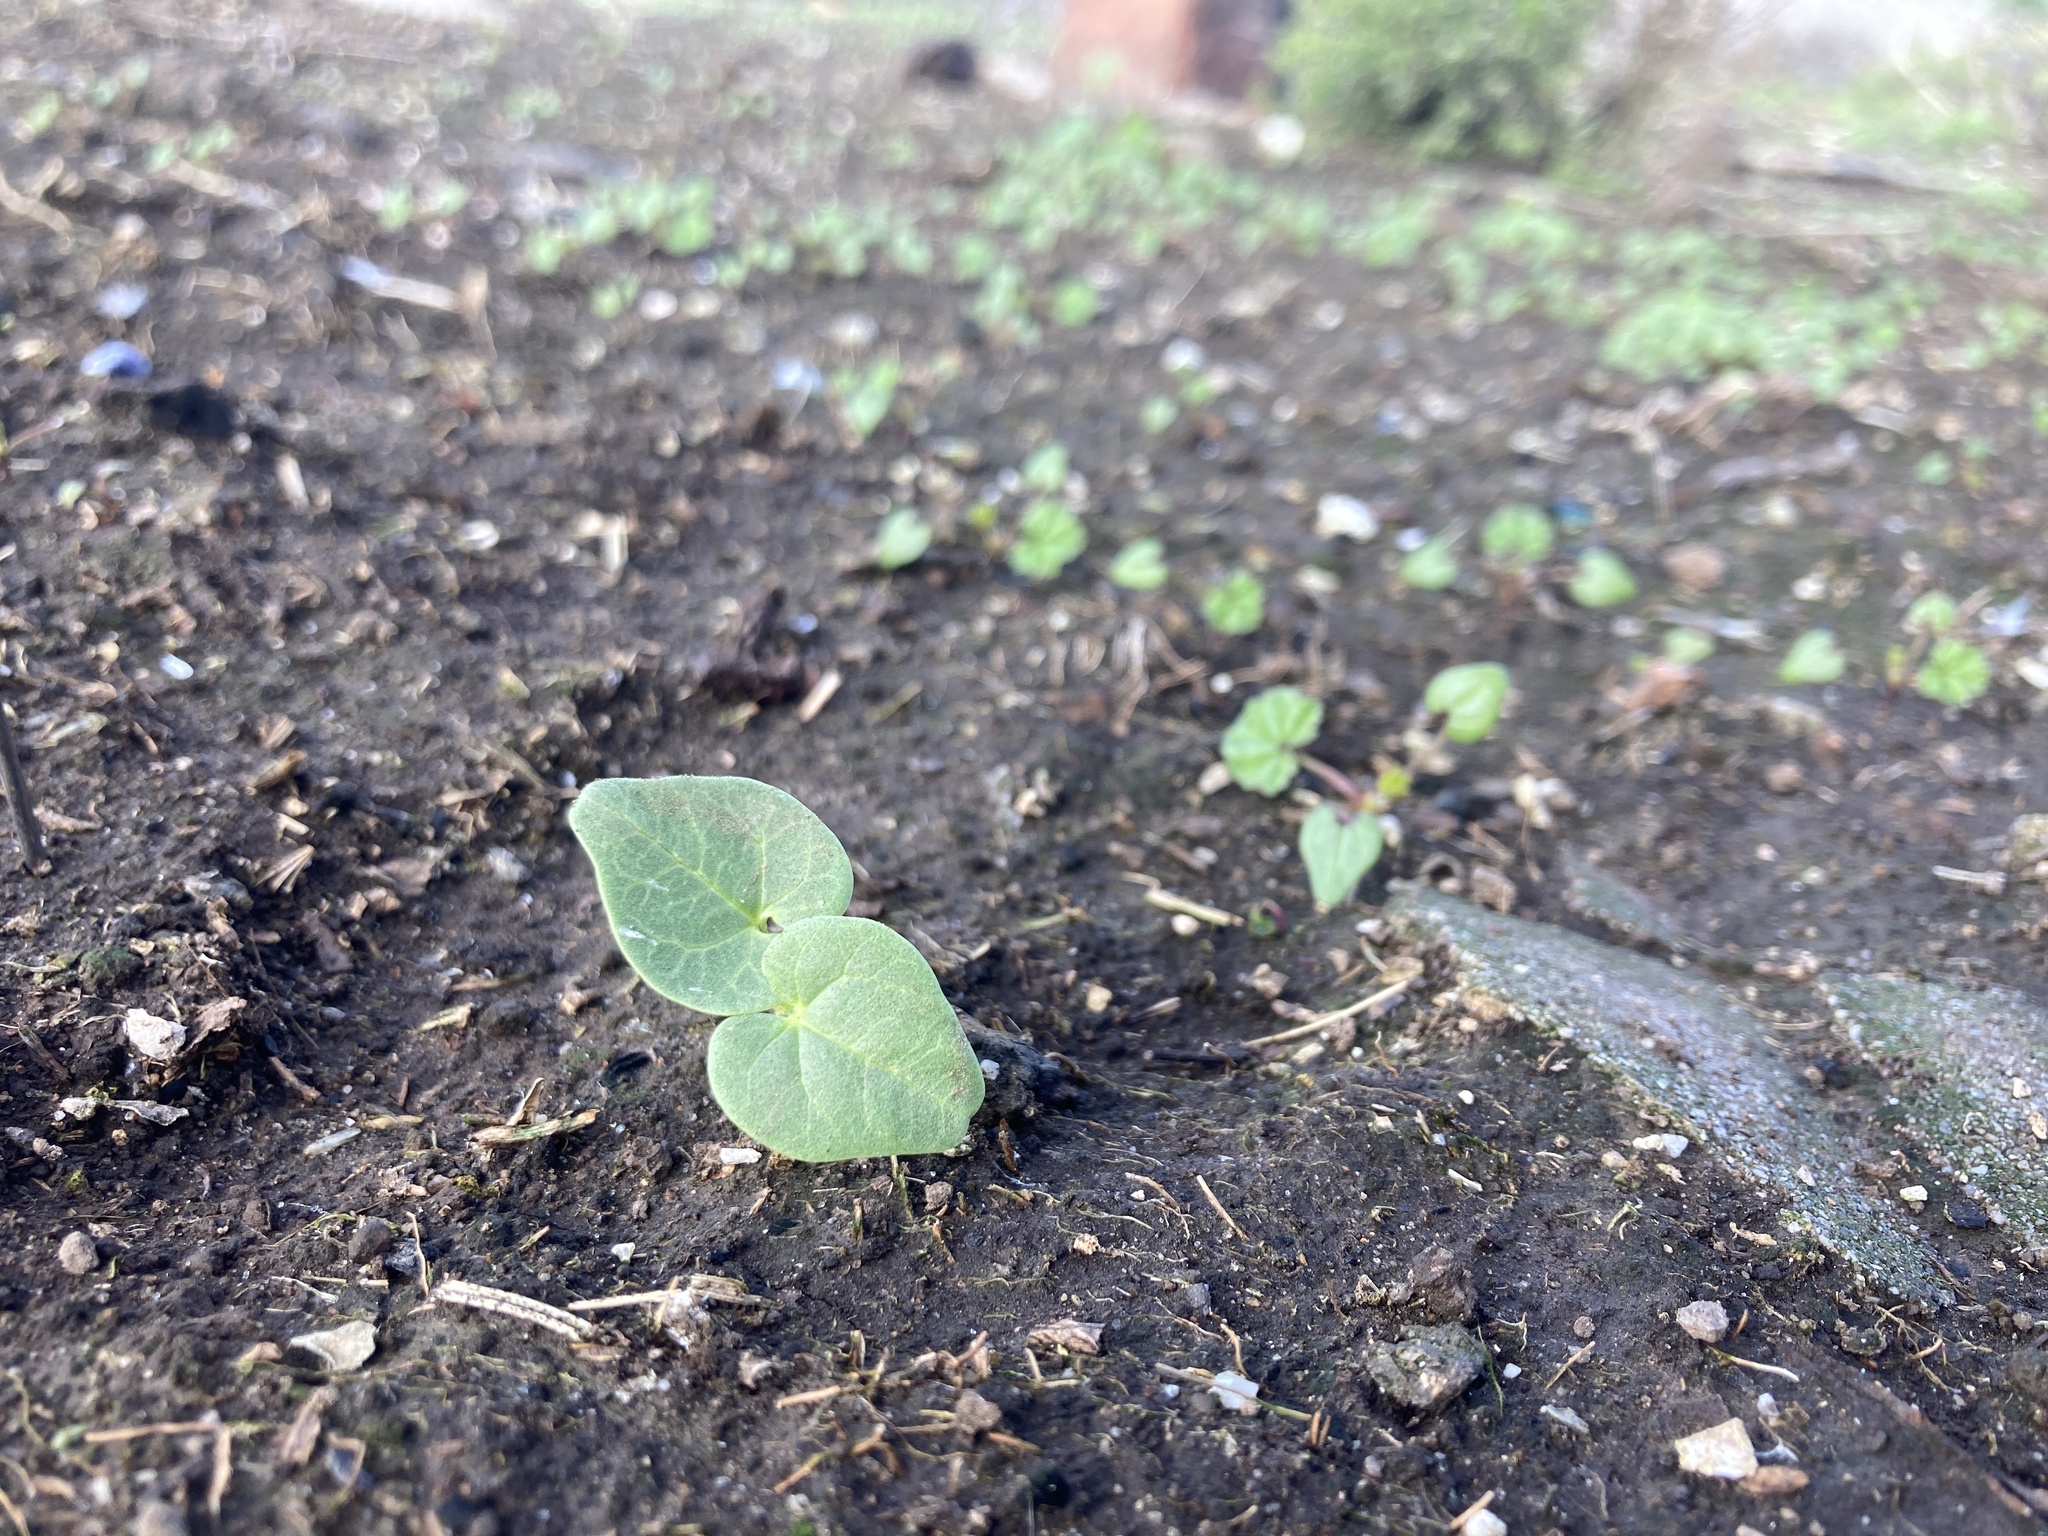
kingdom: Plantae
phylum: Tracheophyta
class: Magnoliopsida
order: Malvales
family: Malvaceae
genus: Malva
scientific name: Malva assurgentiflora
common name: Island mallow
